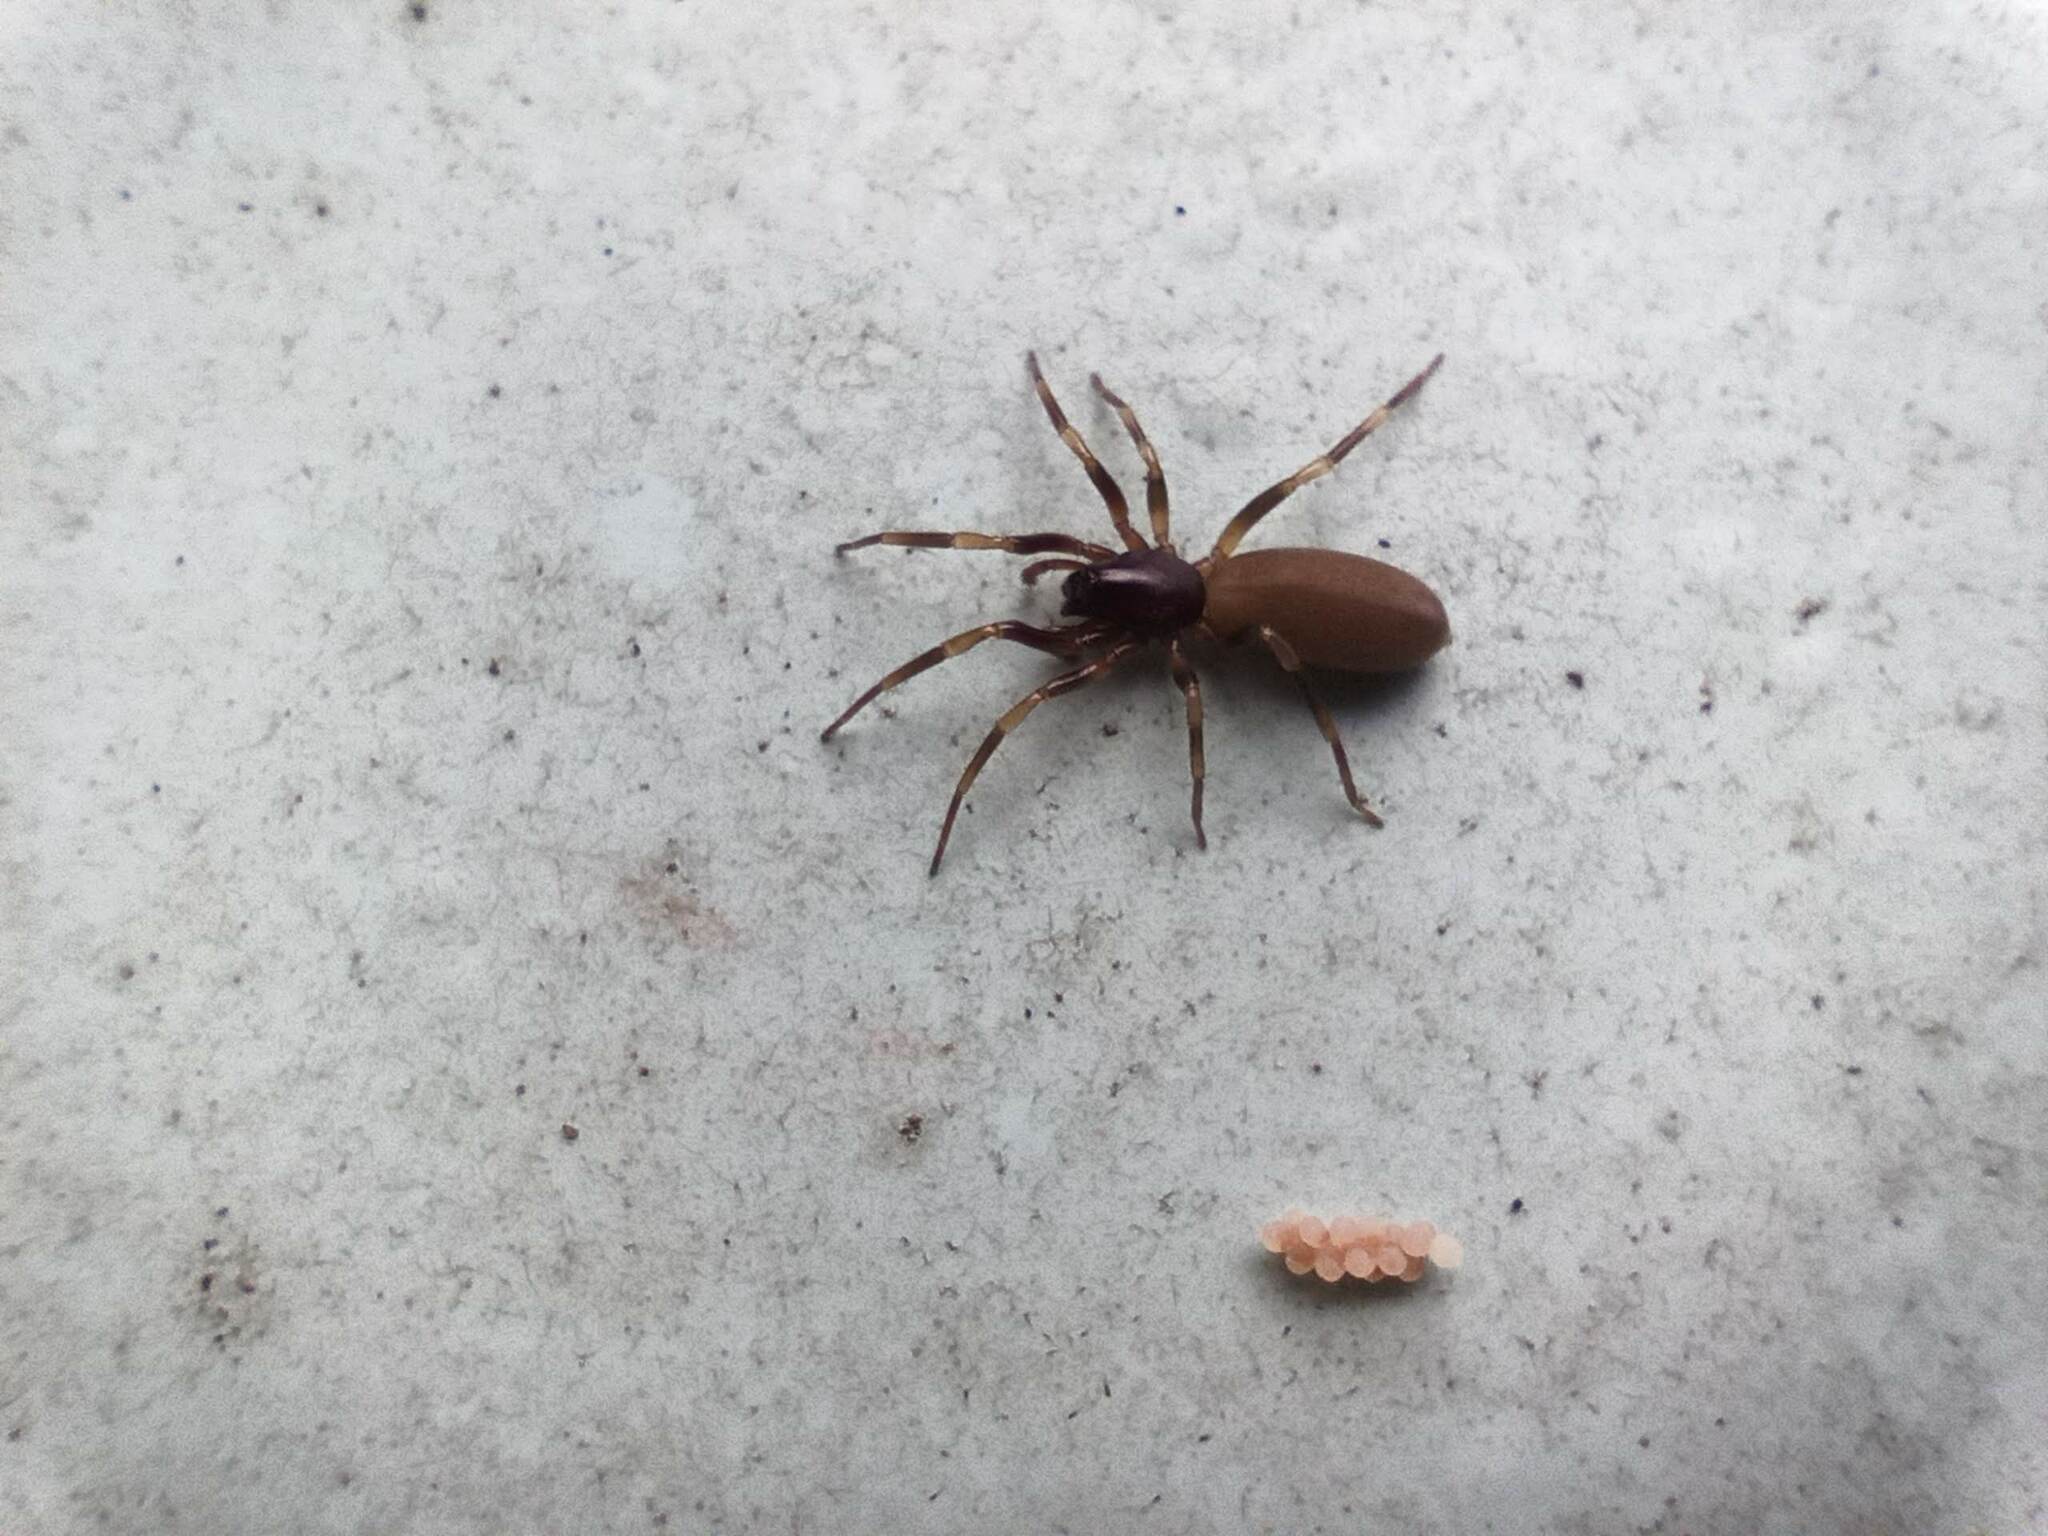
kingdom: Animalia
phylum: Arthropoda
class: Arachnida
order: Araneae
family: Dysderidae
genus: Harpactea
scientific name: Harpactea hombergi
